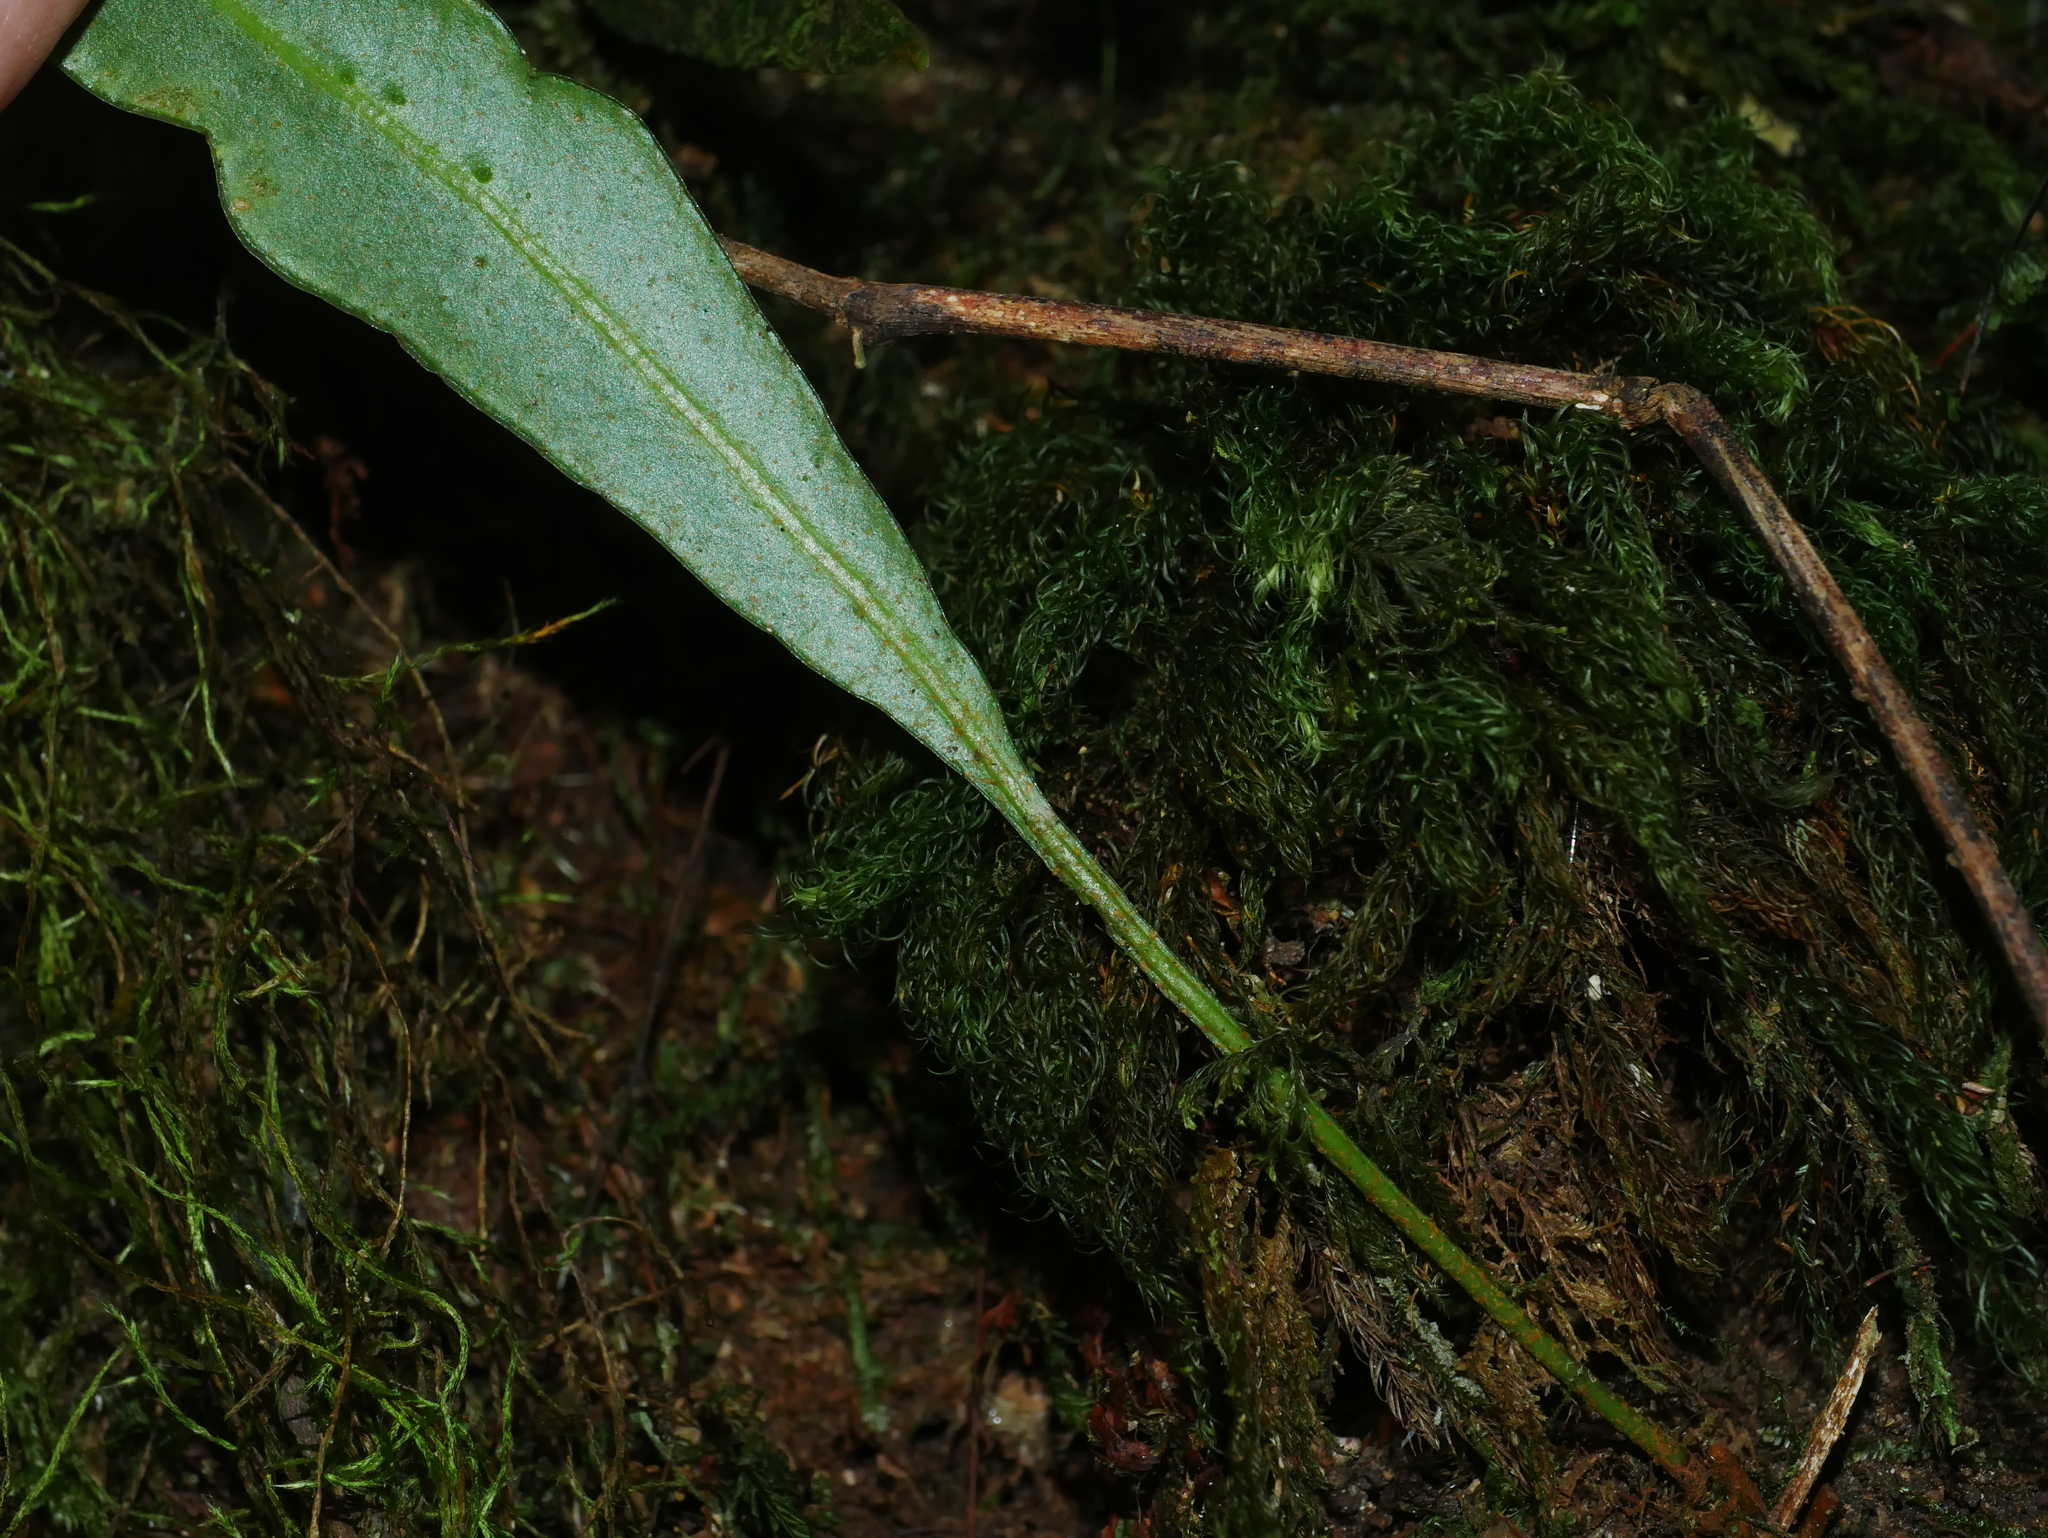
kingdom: Plantae
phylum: Tracheophyta
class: Polypodiopsida
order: Polypodiales
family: Dryopteridaceae
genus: Elaphoglossum
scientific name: Elaphoglossum marginatum
